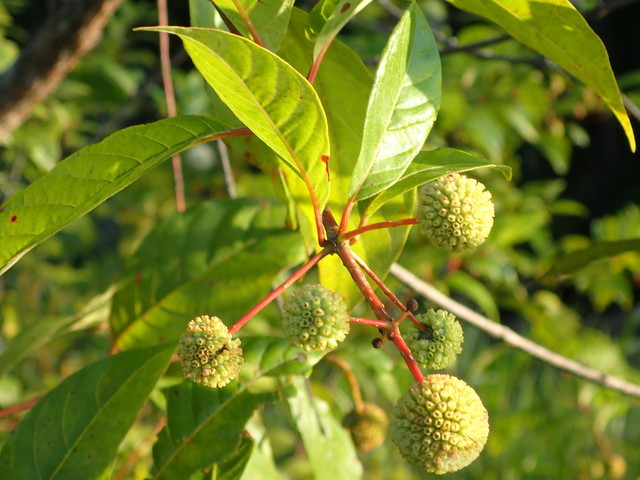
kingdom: Plantae
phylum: Tracheophyta
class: Magnoliopsida
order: Gentianales
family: Rubiaceae
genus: Cephalanthus
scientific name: Cephalanthus occidentalis
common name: Button-willow
